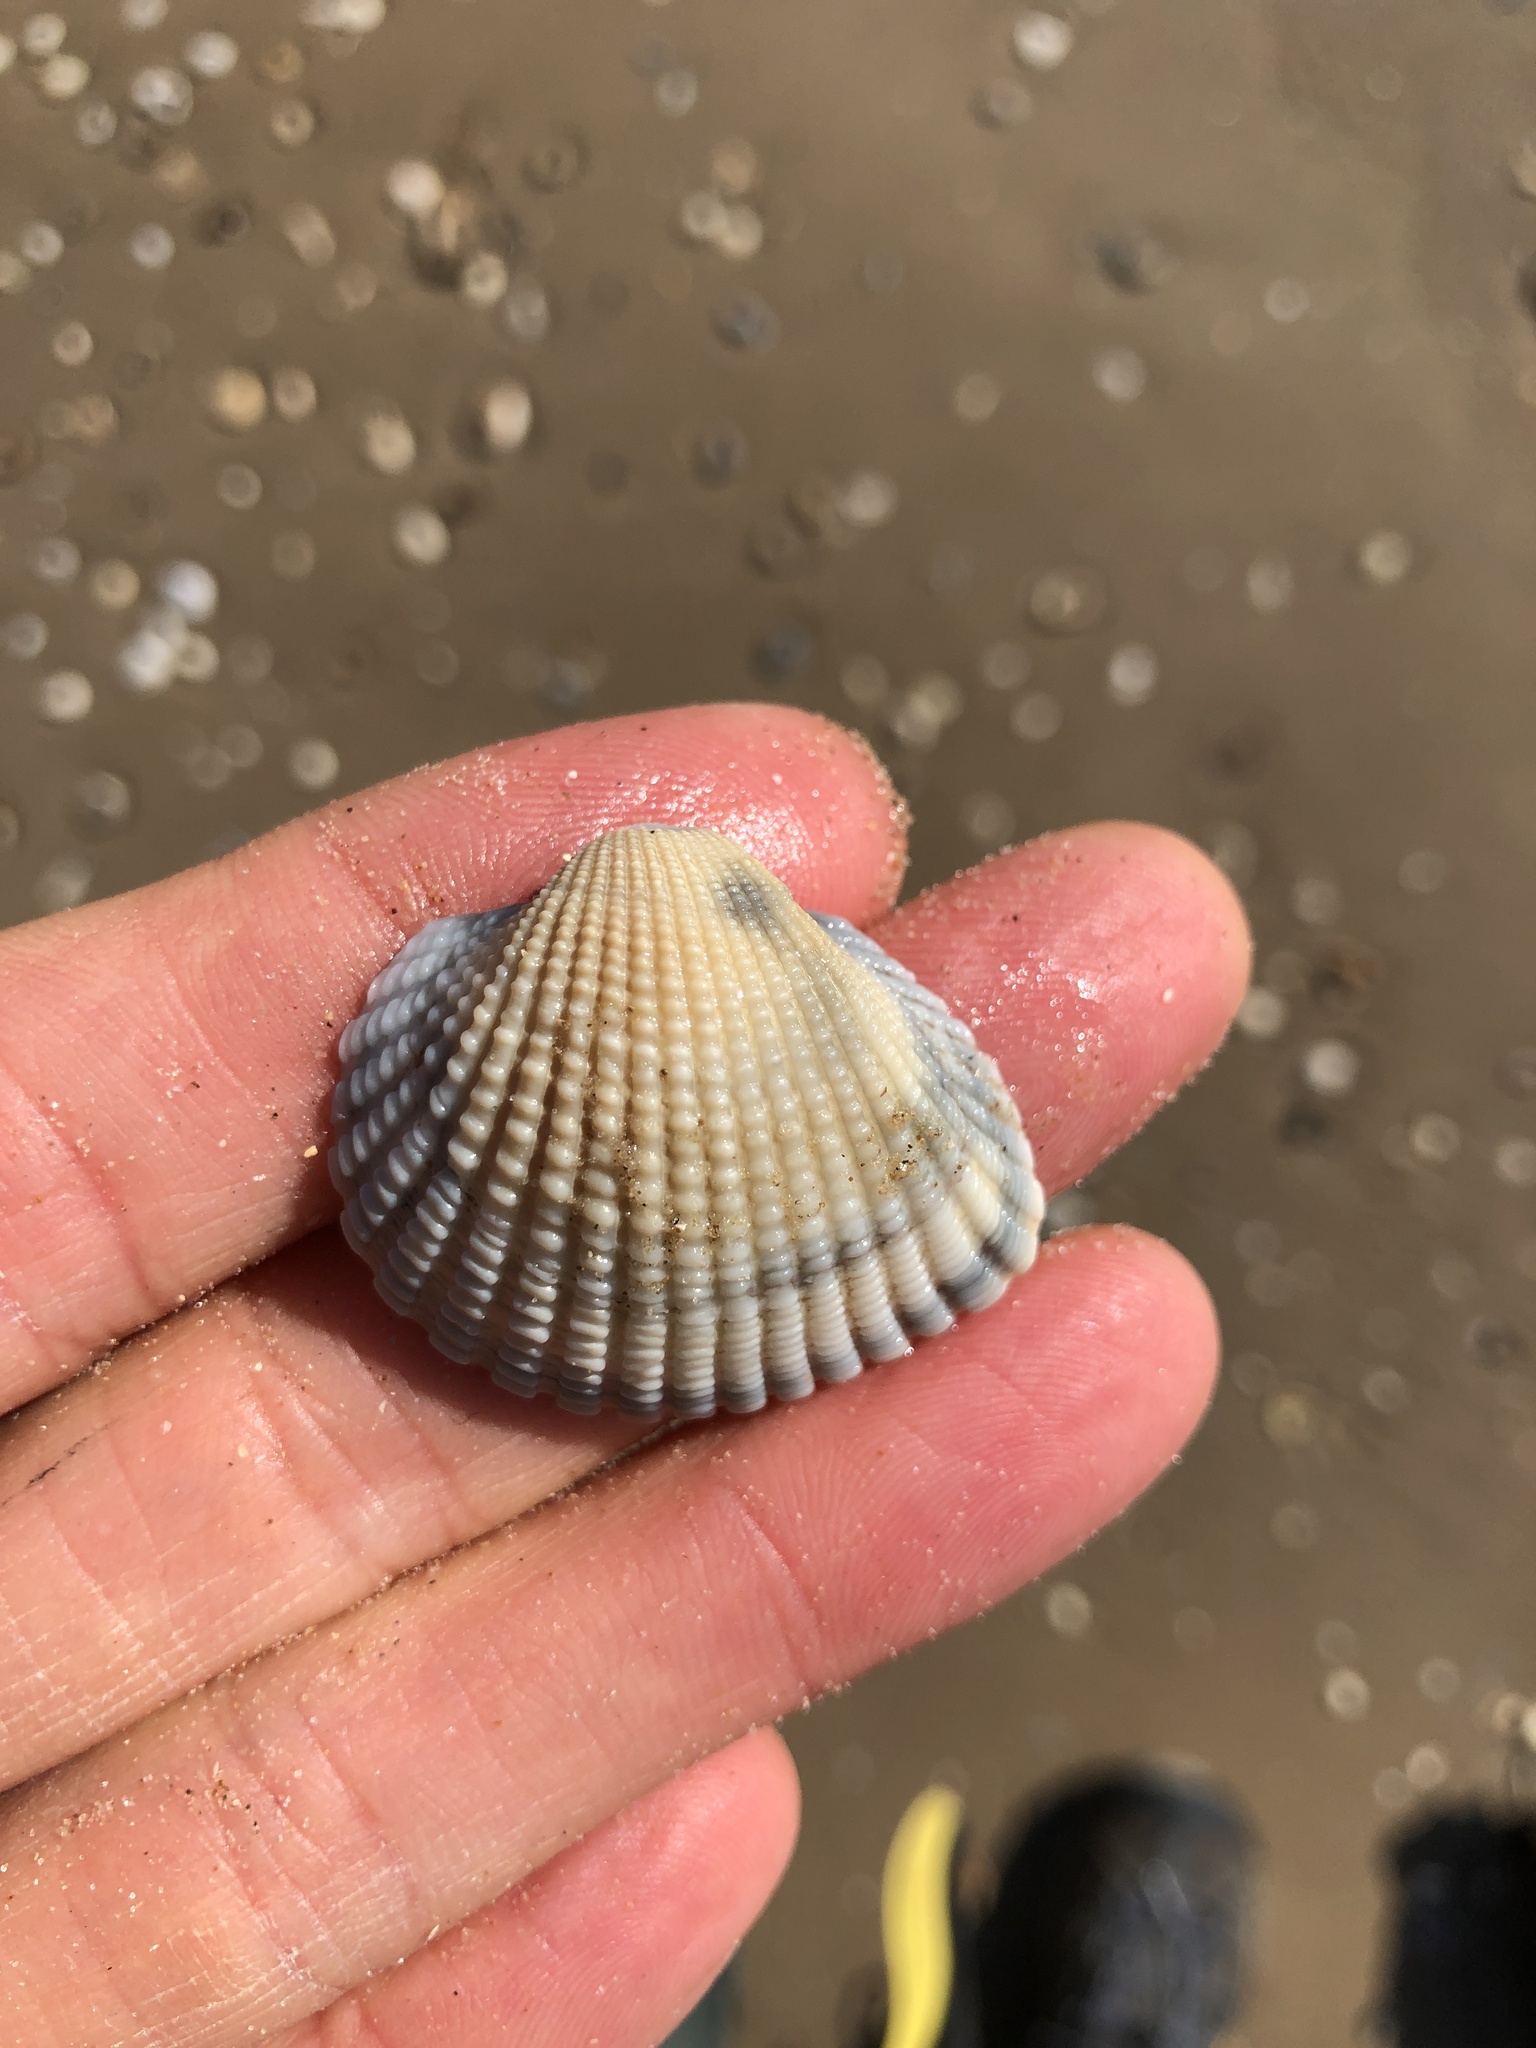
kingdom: Animalia
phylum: Mollusca
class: Bivalvia
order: Arcida
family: Arcidae
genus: Anadara
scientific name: Anadara brasiliana
